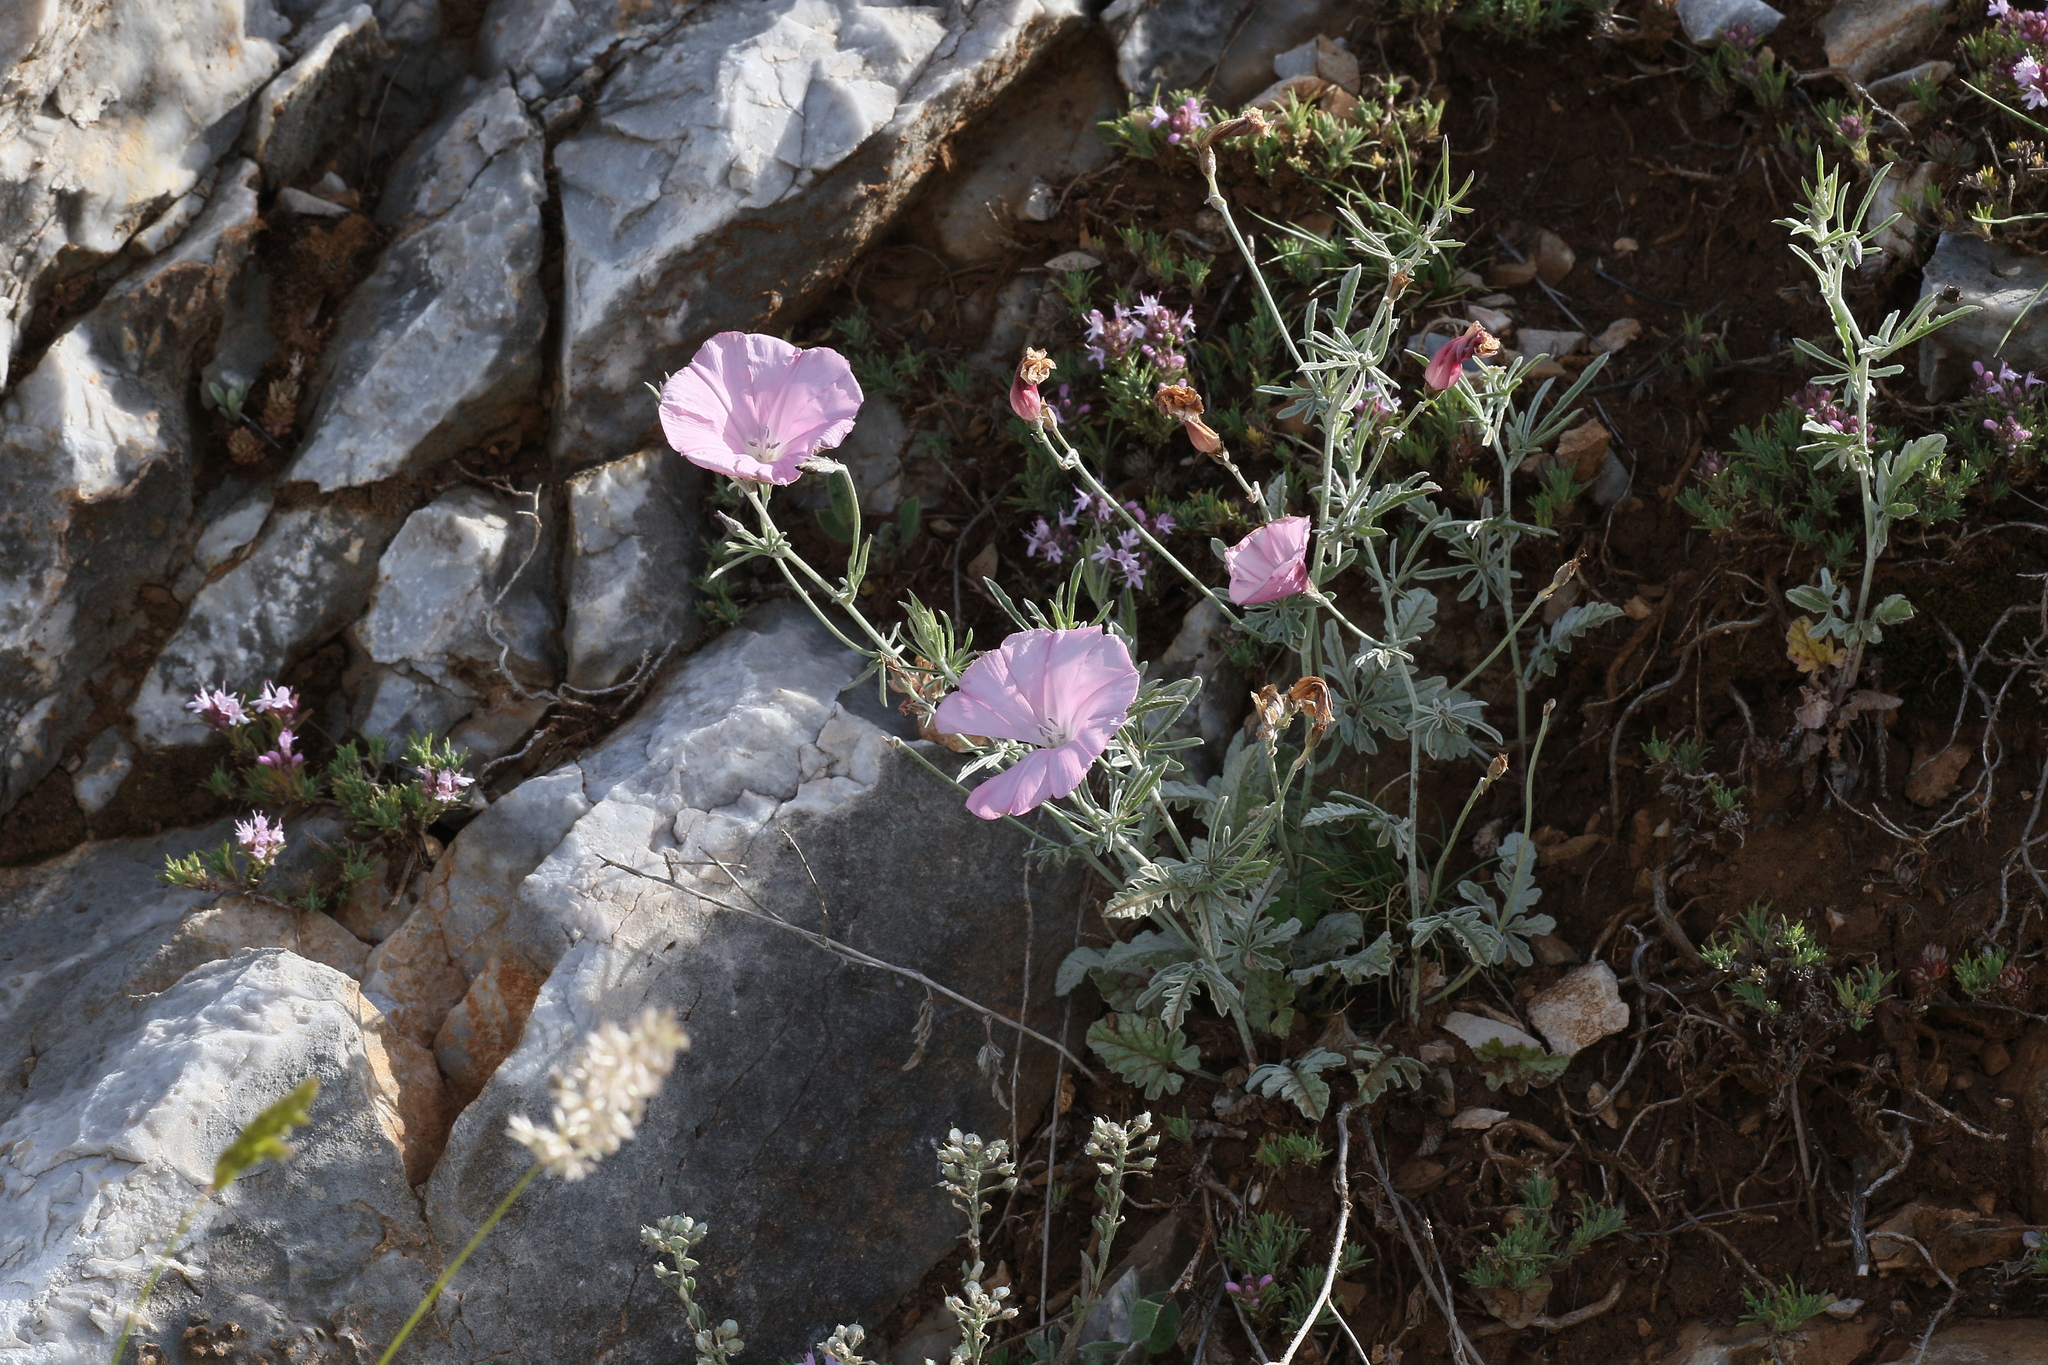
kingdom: Plantae
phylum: Tracheophyta
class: Magnoliopsida
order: Solanales
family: Convolvulaceae
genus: Convolvulus
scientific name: Convolvulus elegantissimus
